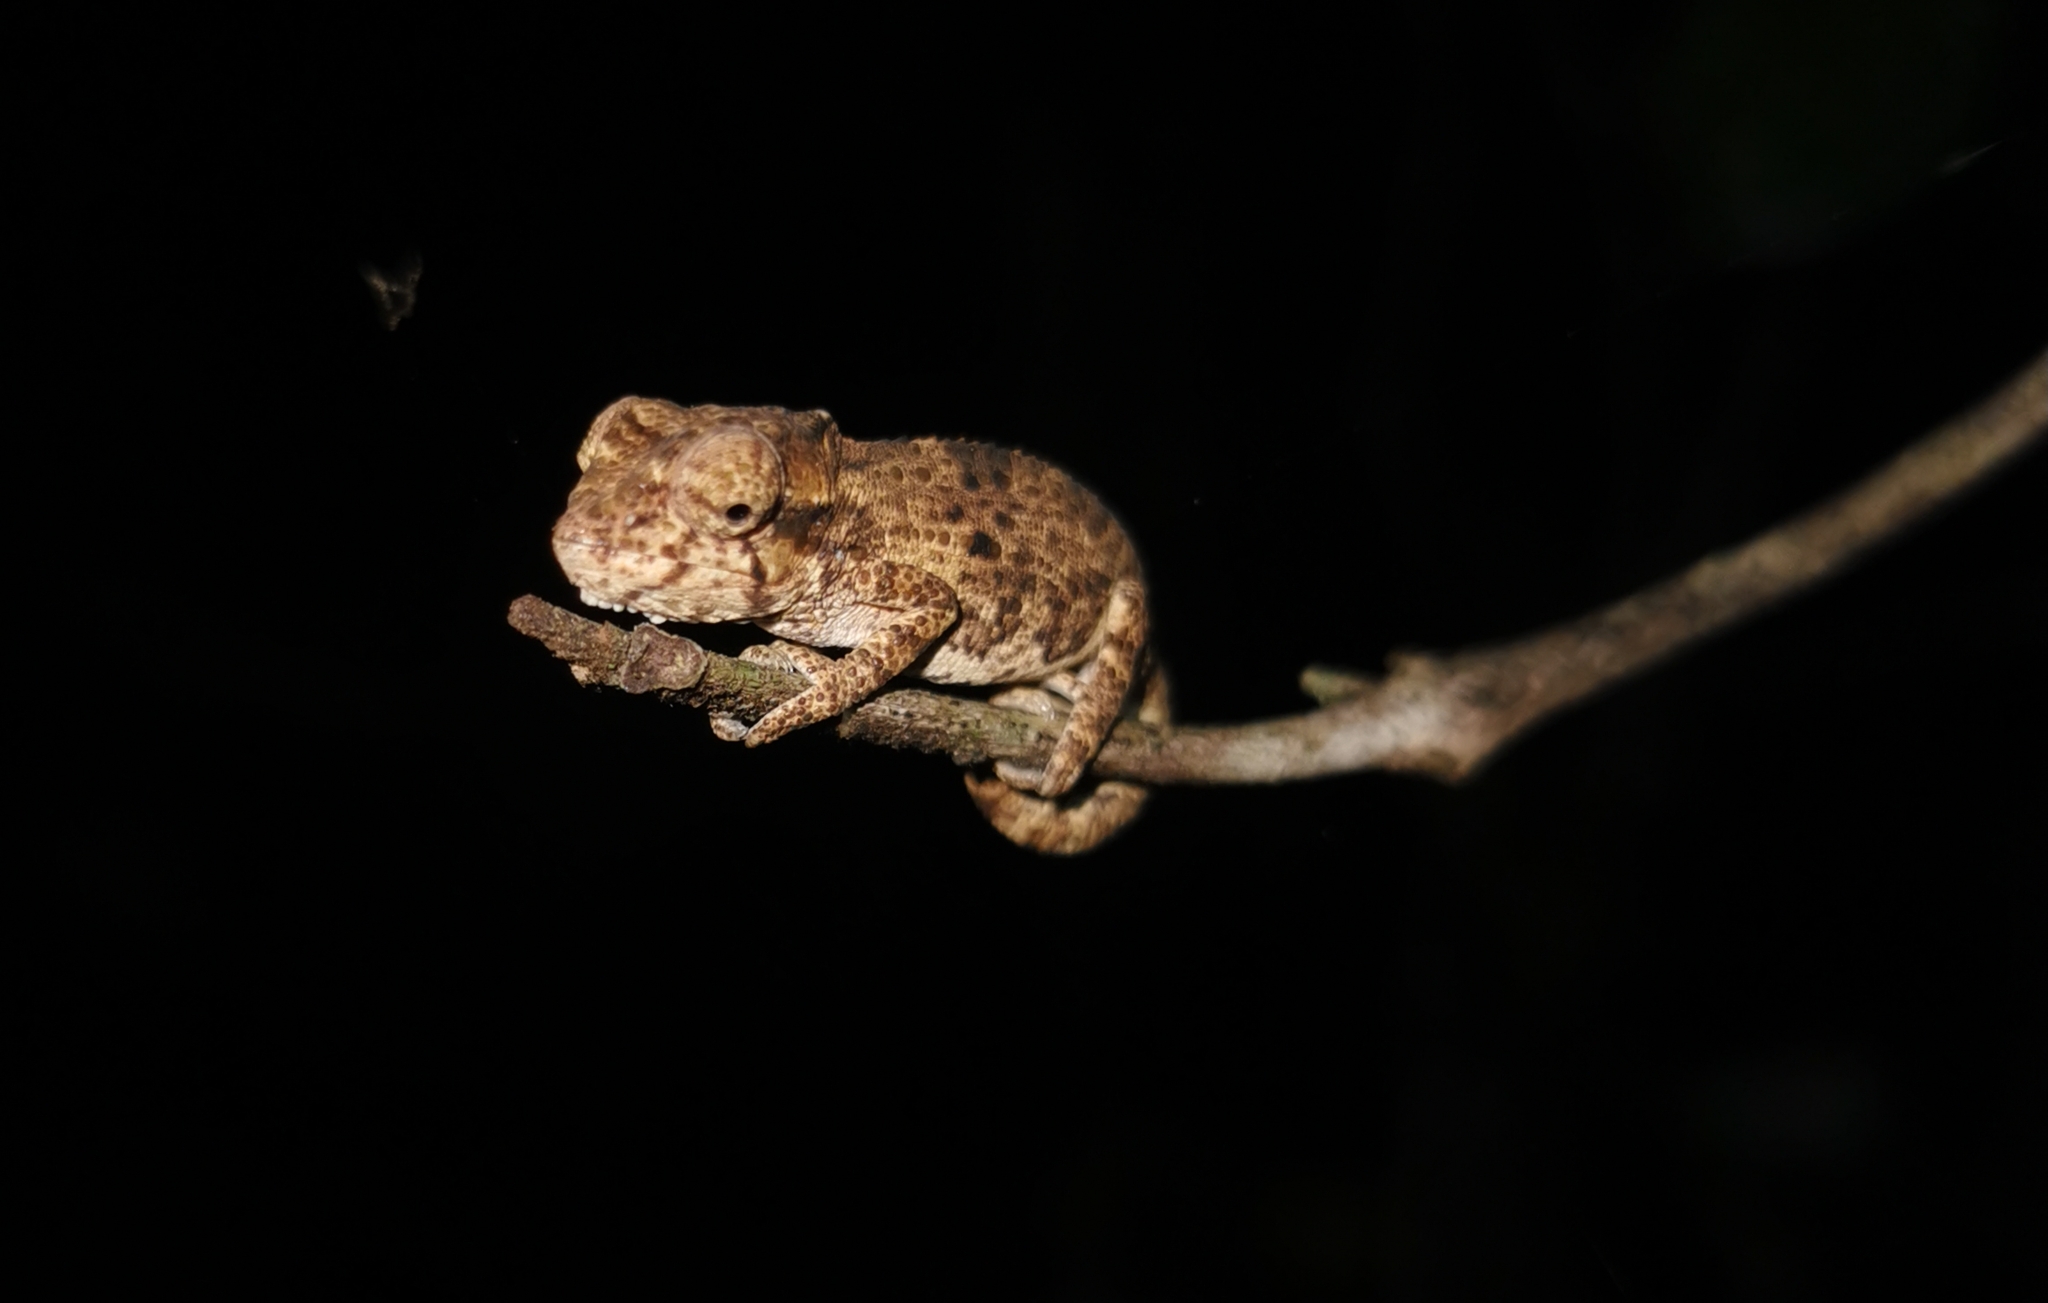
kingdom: Animalia
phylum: Chordata
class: Squamata
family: Chamaeleonidae
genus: Bradypodion
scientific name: Bradypodion damaranum
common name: Knysna dwarf chameleon
